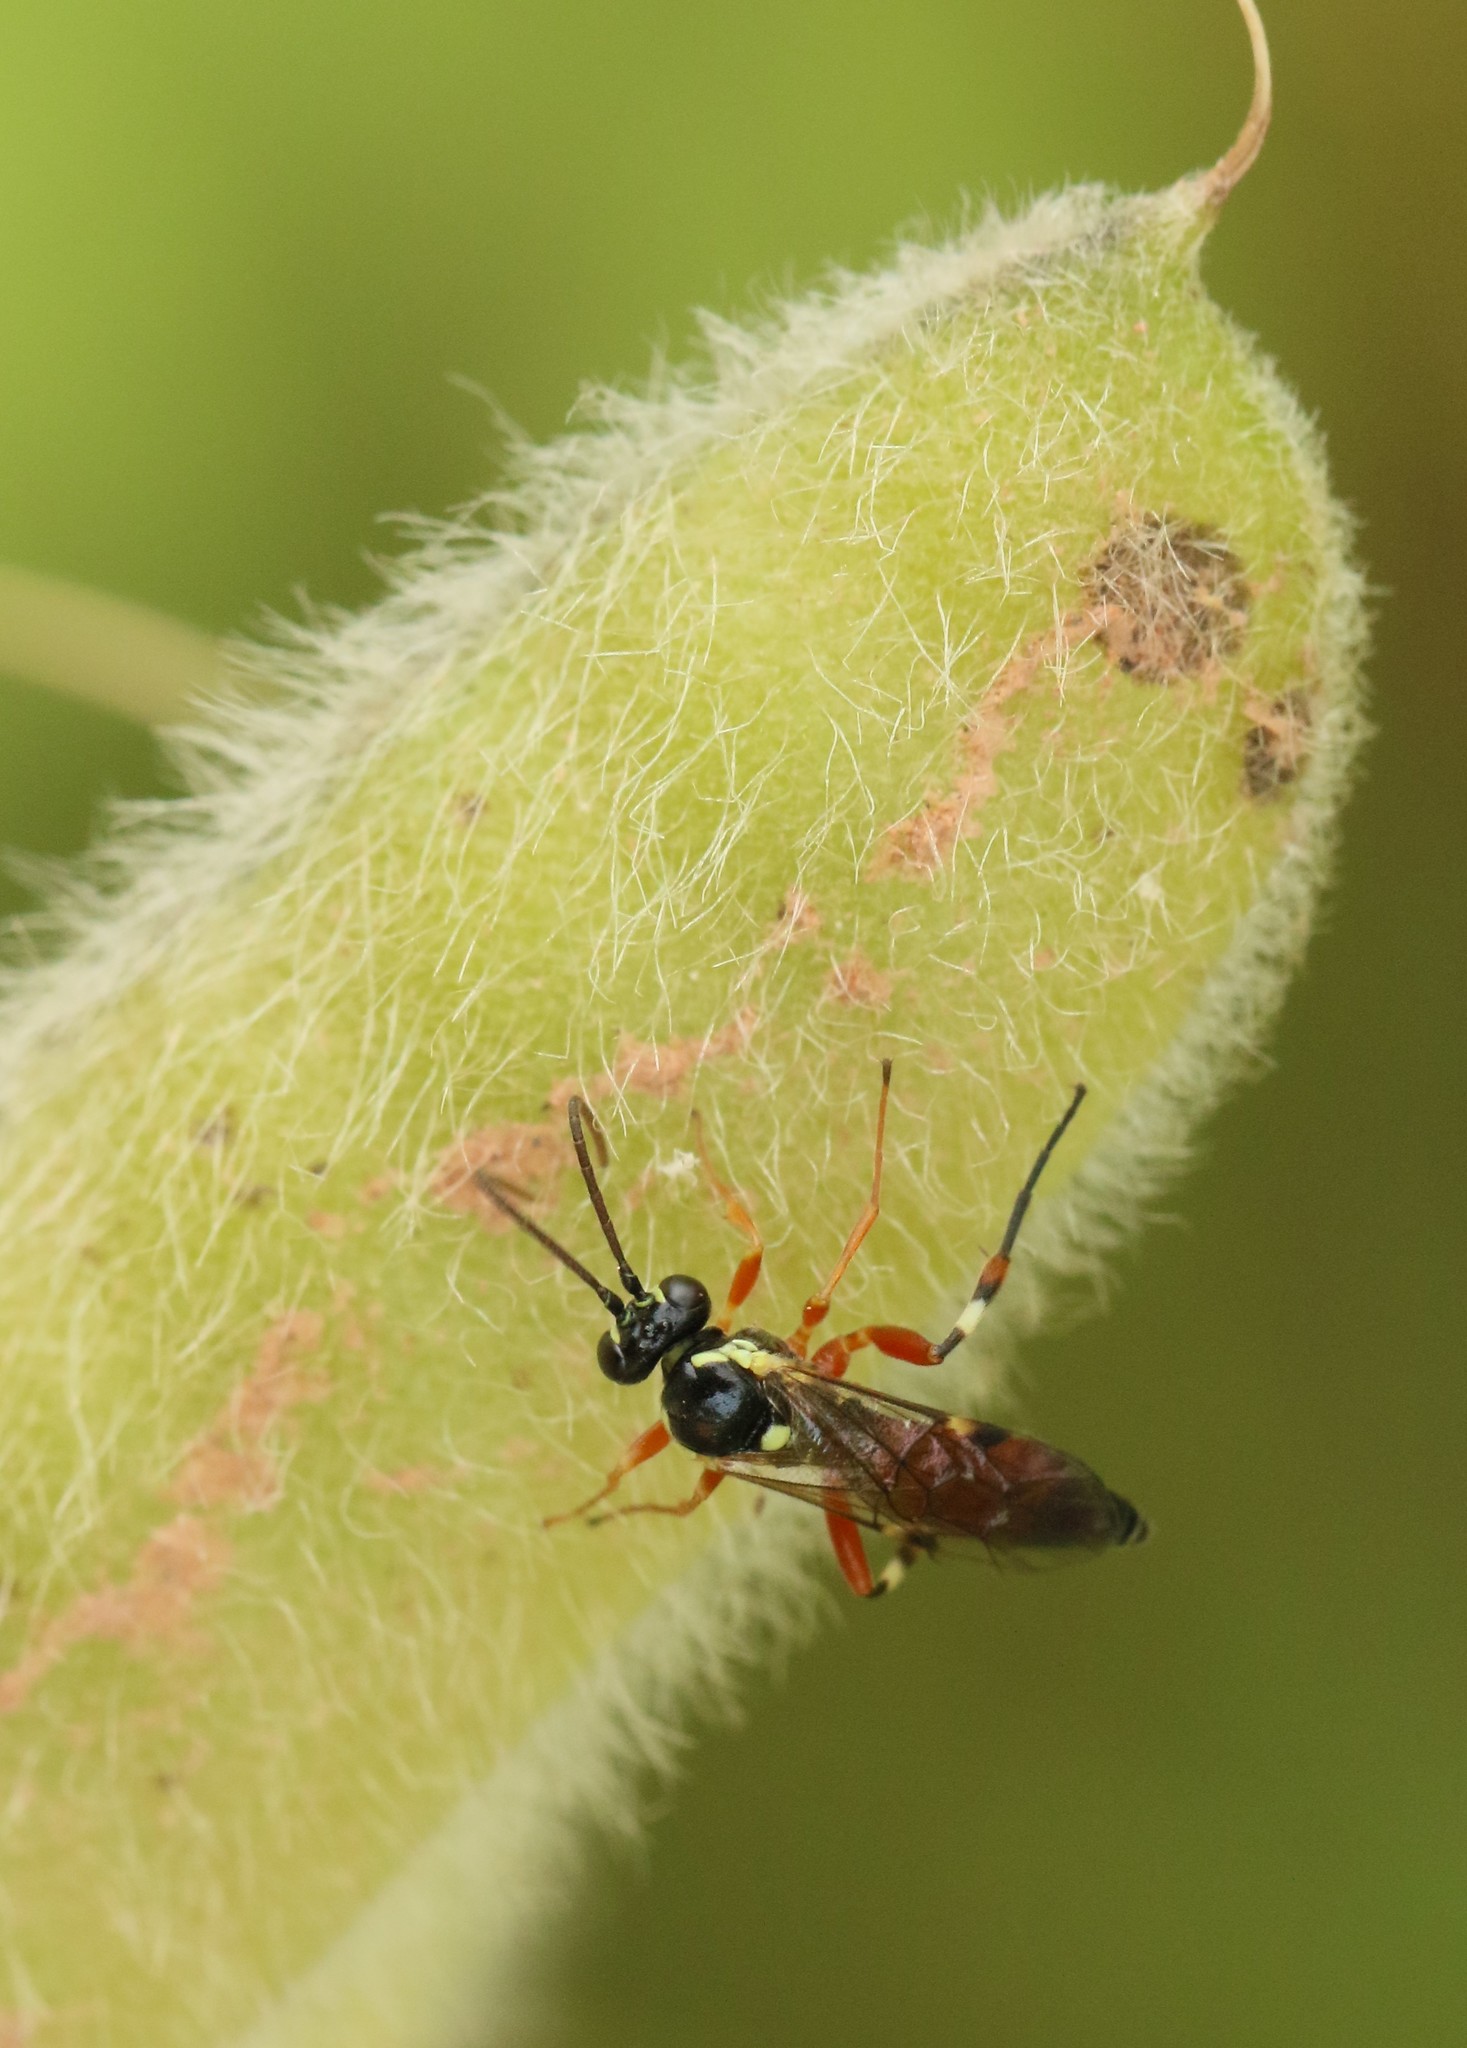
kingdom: Animalia
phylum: Arthropoda
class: Insecta
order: Hymenoptera
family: Ichneumonidae
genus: Diplazon
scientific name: Diplazon laetatorius
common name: Parasitoid wasp
